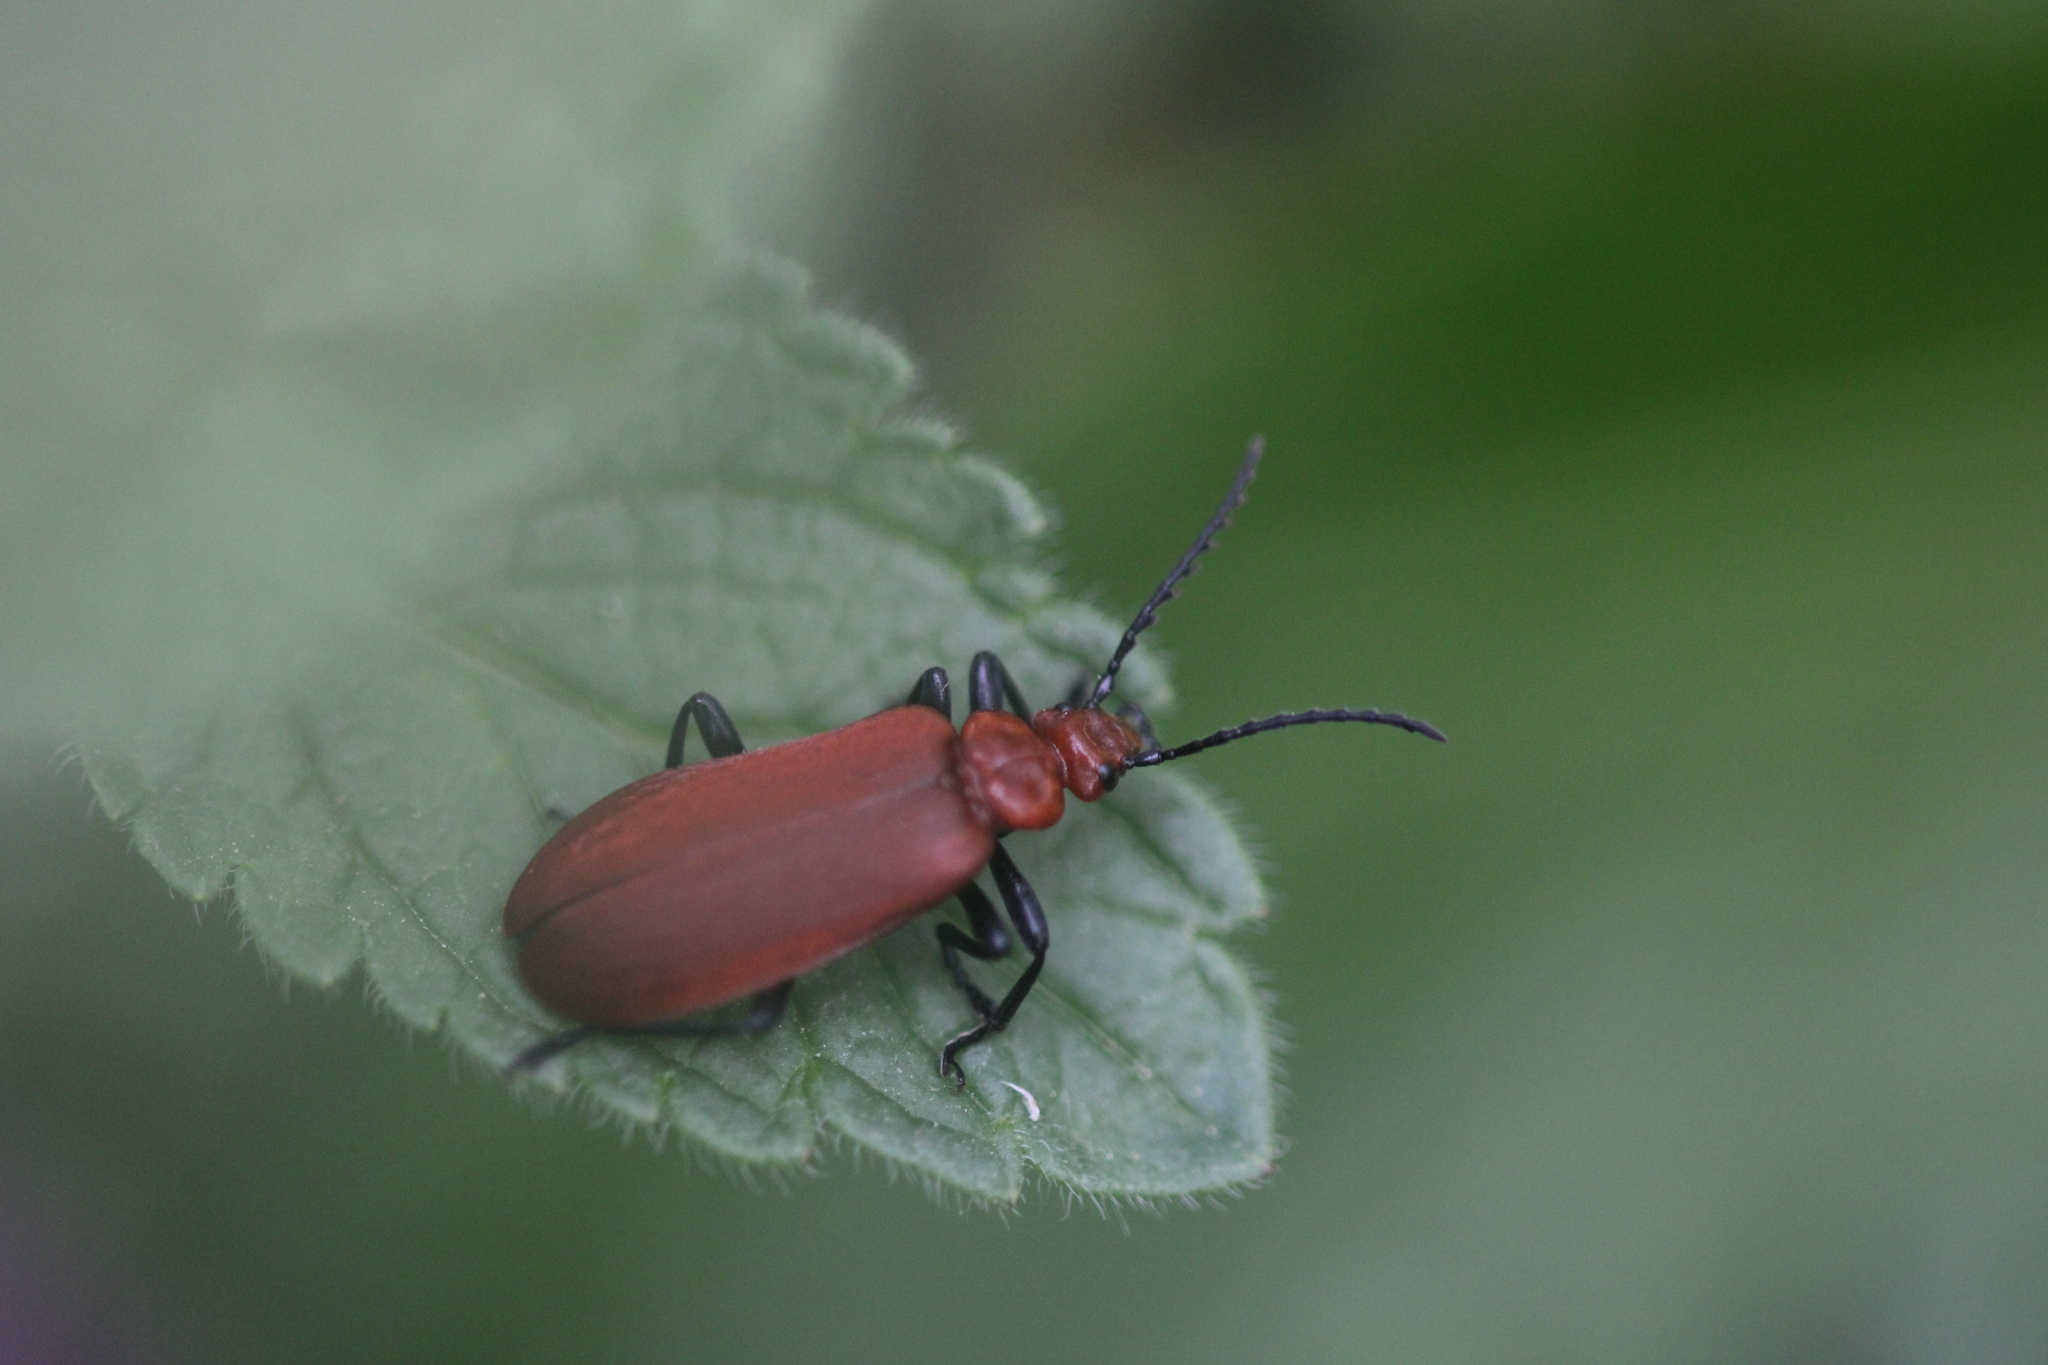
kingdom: Animalia
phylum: Arthropoda
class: Insecta
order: Coleoptera
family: Pyrochroidae
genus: Pyrochroa
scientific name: Pyrochroa serraticornis
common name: Red-headed cardinal beetle
